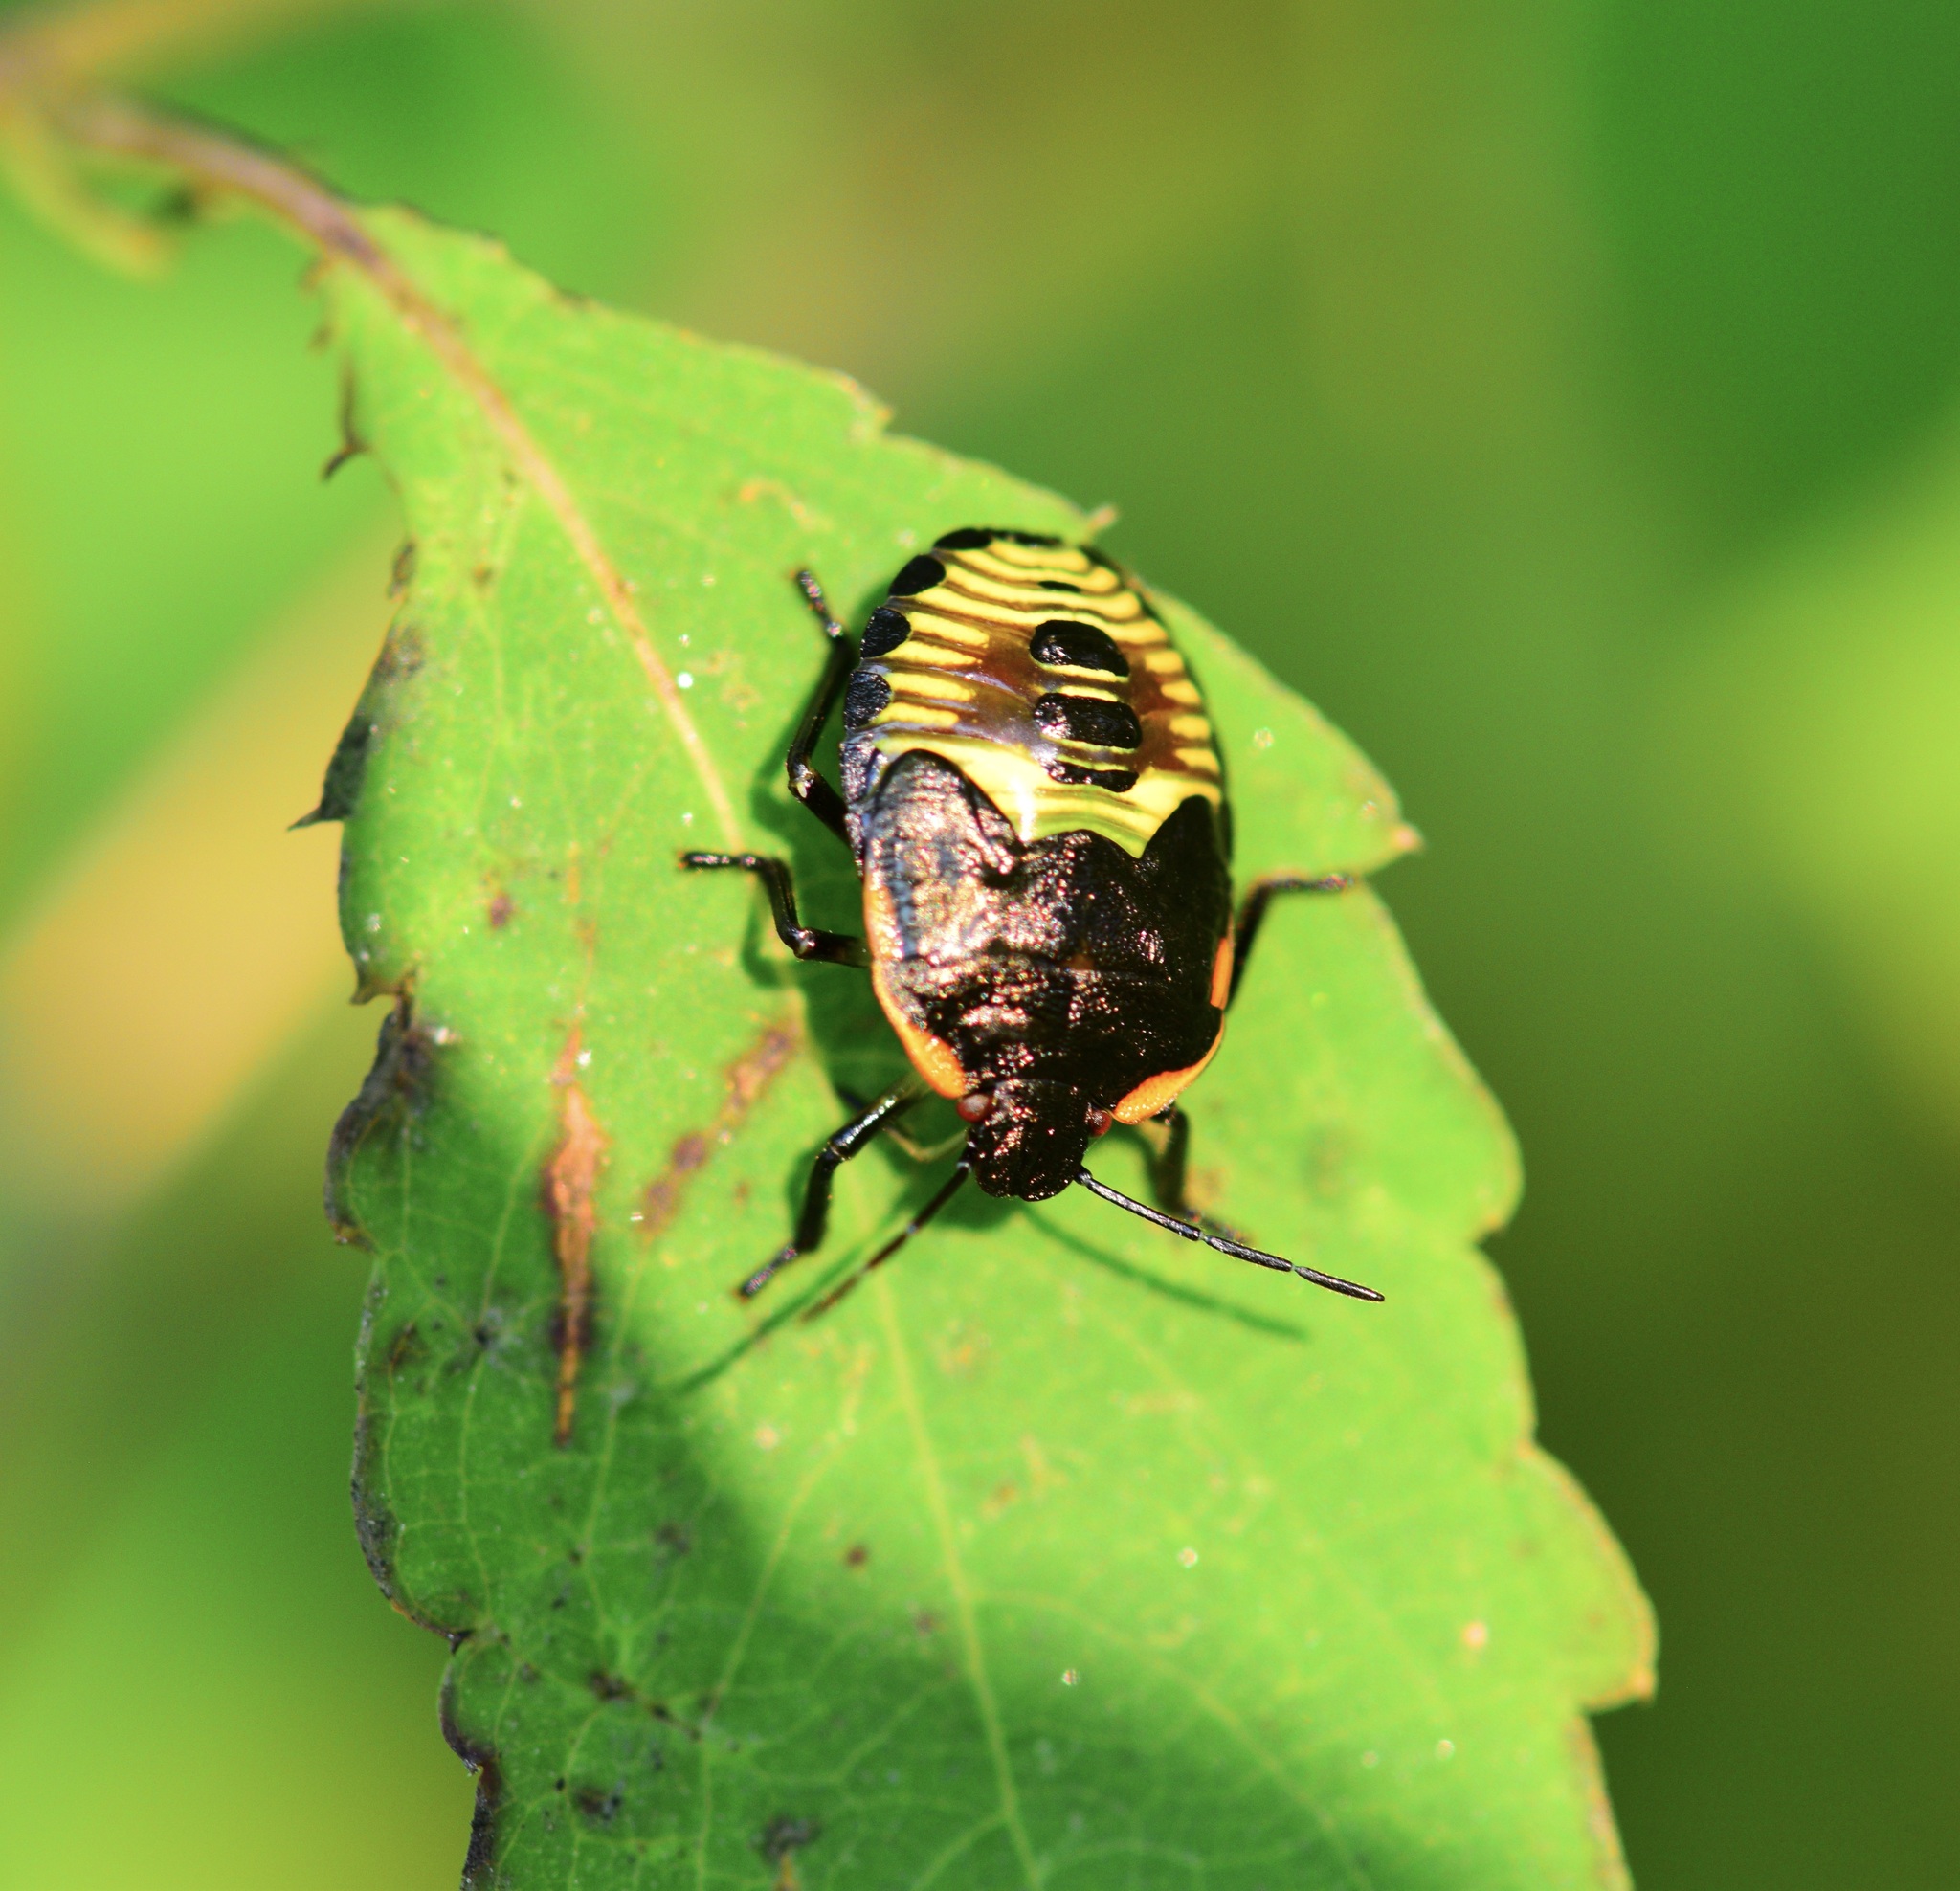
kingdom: Animalia
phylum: Arthropoda
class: Insecta
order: Hemiptera
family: Pentatomidae
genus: Chinavia
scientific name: Chinavia hilaris
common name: Green stink bug
